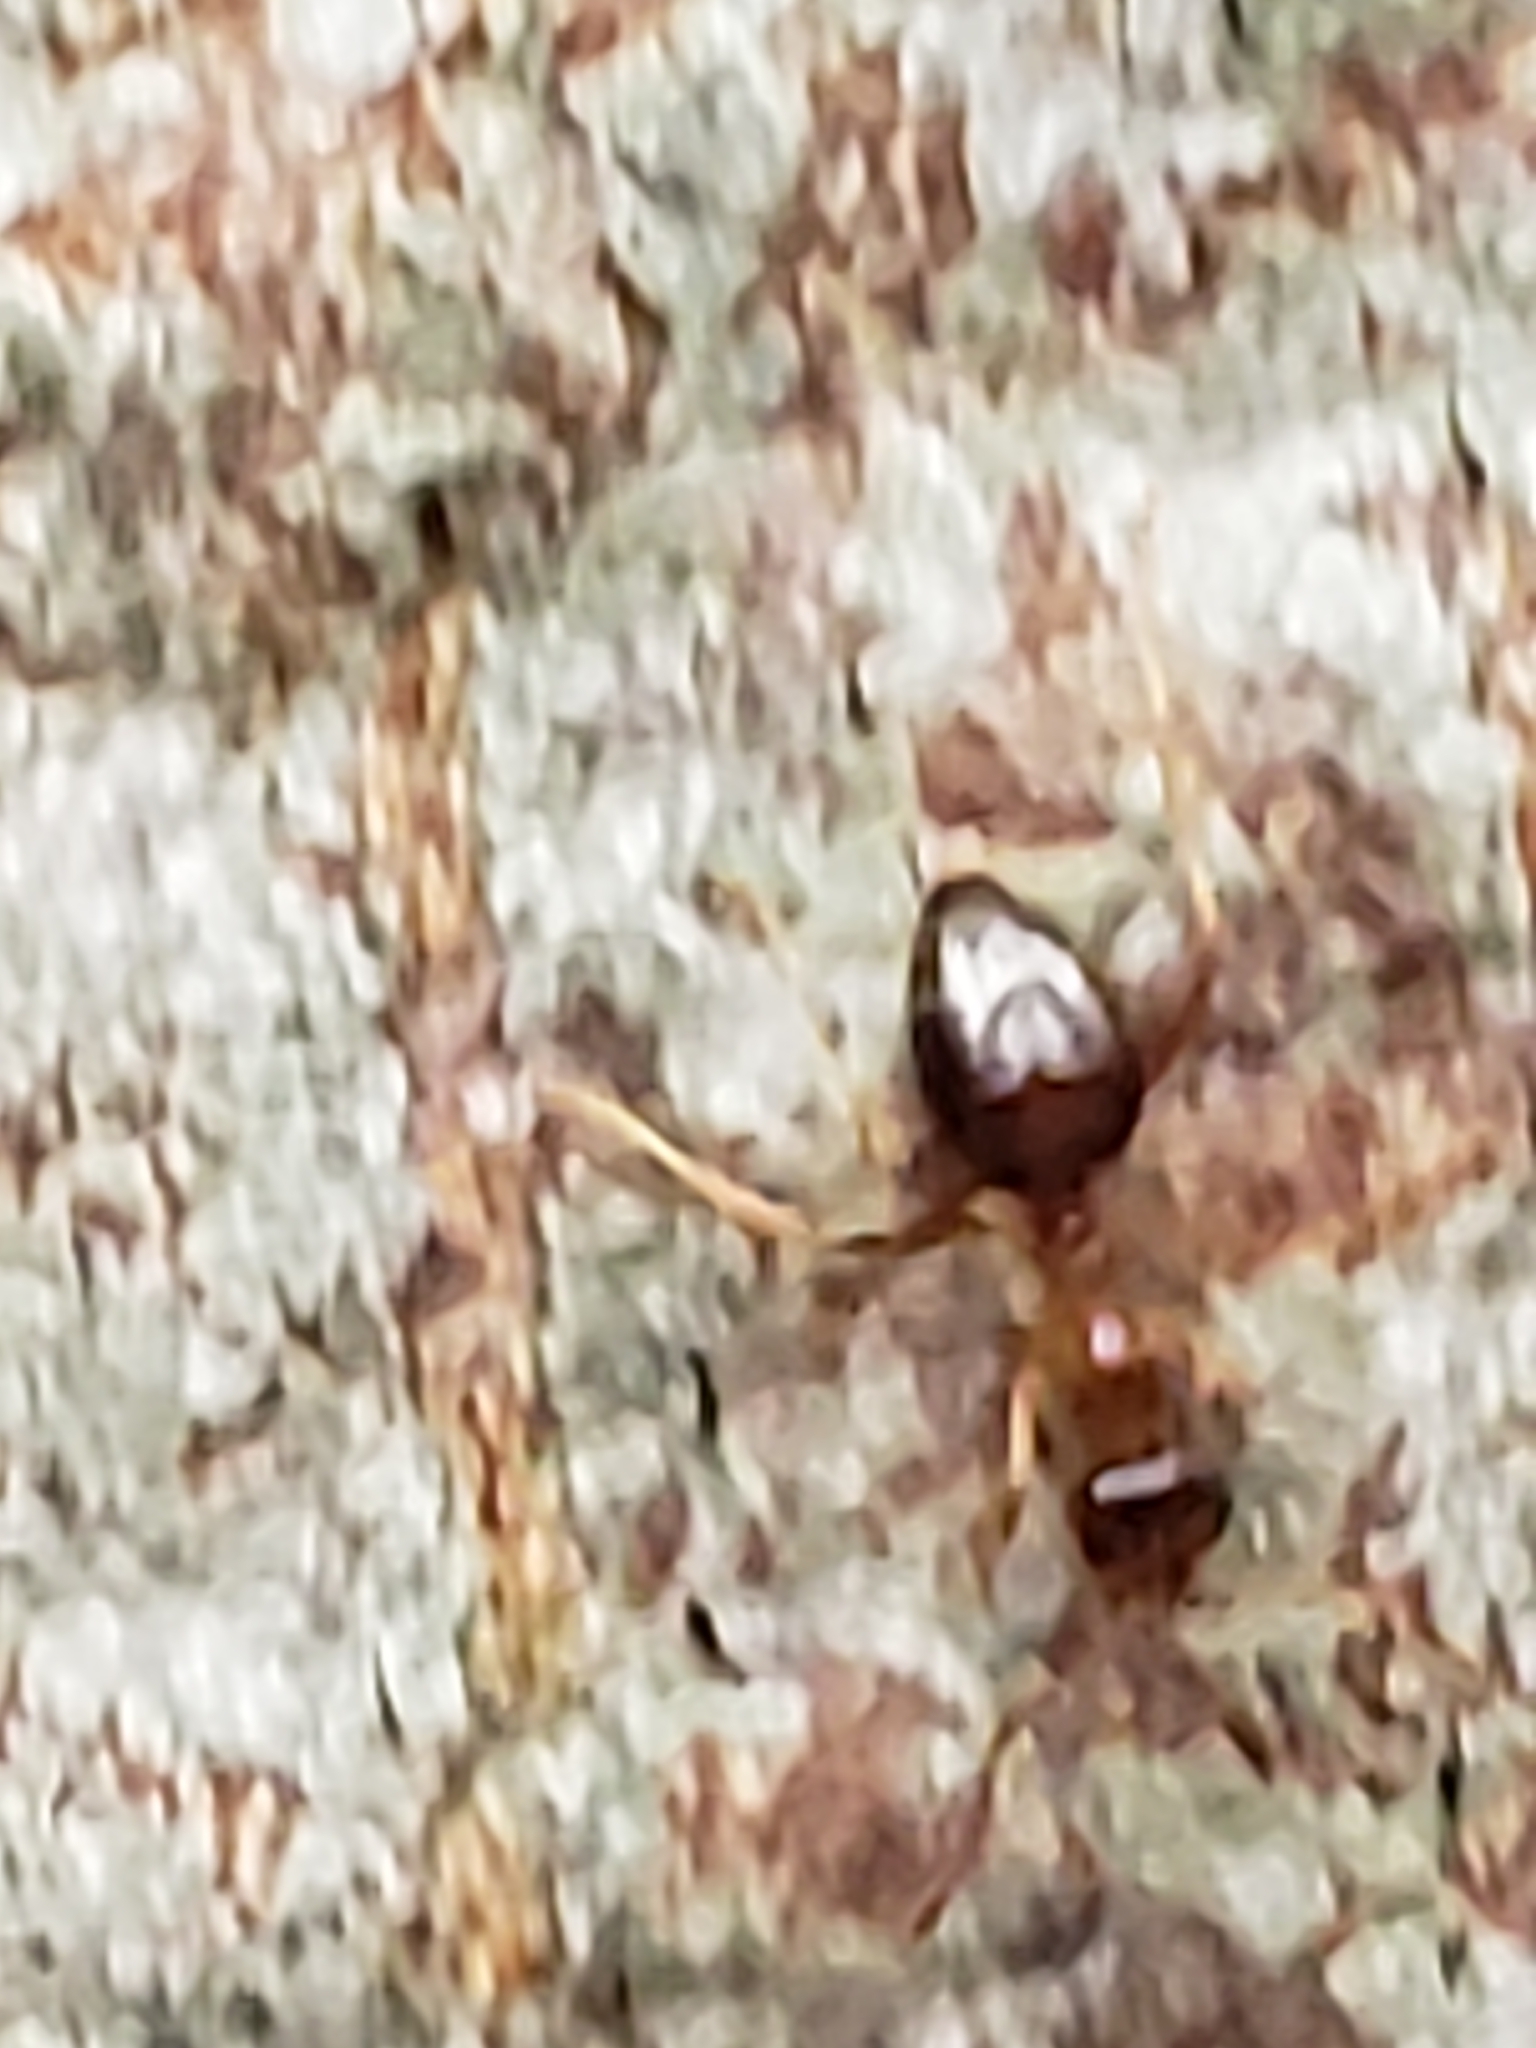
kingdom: Animalia
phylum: Arthropoda
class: Insecta
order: Hymenoptera
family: Formicidae
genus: Prenolepis
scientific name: Prenolepis imparis
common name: Small honey ant
